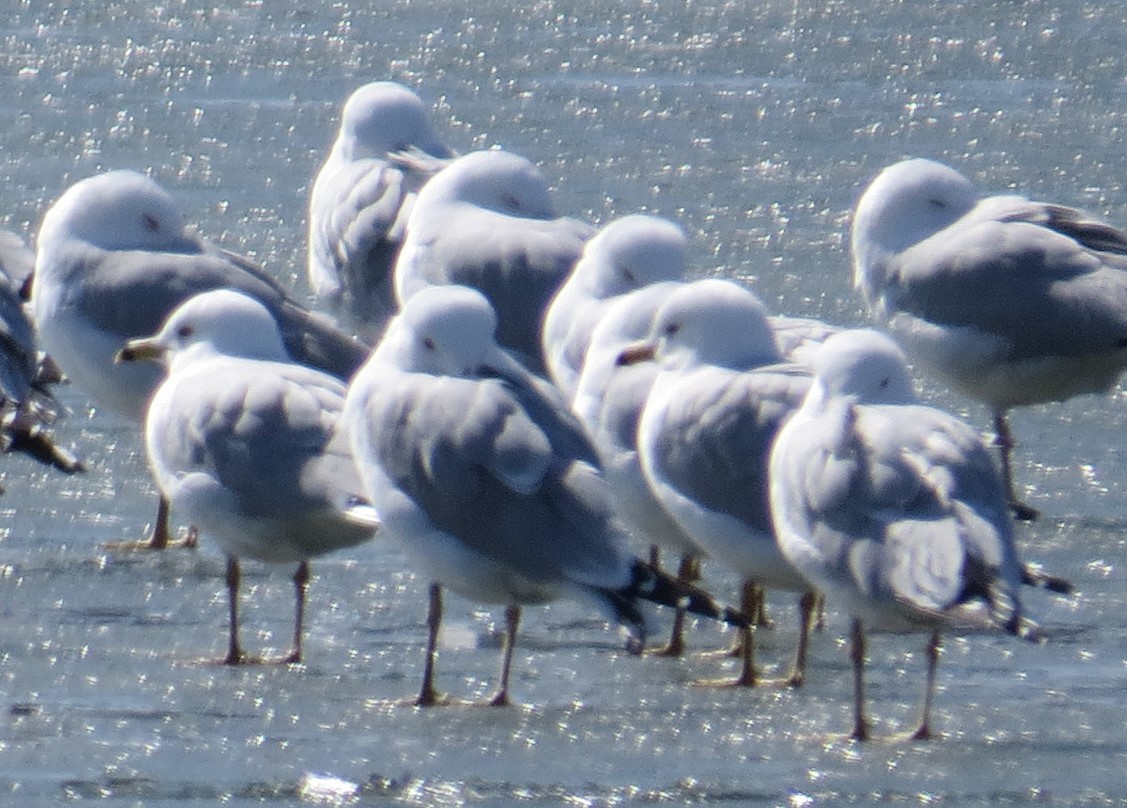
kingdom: Animalia
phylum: Chordata
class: Aves
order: Charadriiformes
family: Laridae
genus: Larus
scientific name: Larus delawarensis
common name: Ring-billed gull
